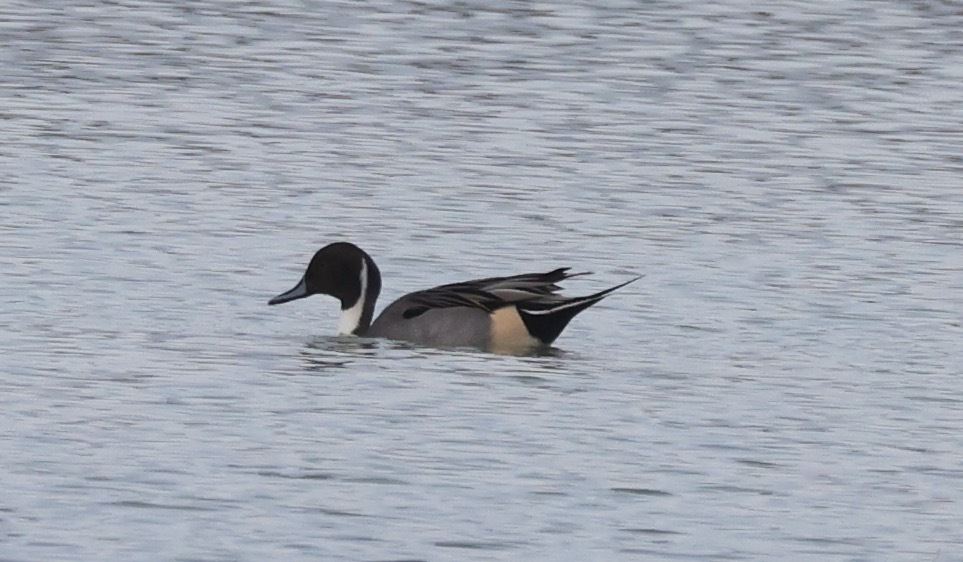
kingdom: Animalia
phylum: Chordata
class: Aves
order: Anseriformes
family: Anatidae
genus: Anas
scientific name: Anas acuta
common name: Northern pintail
